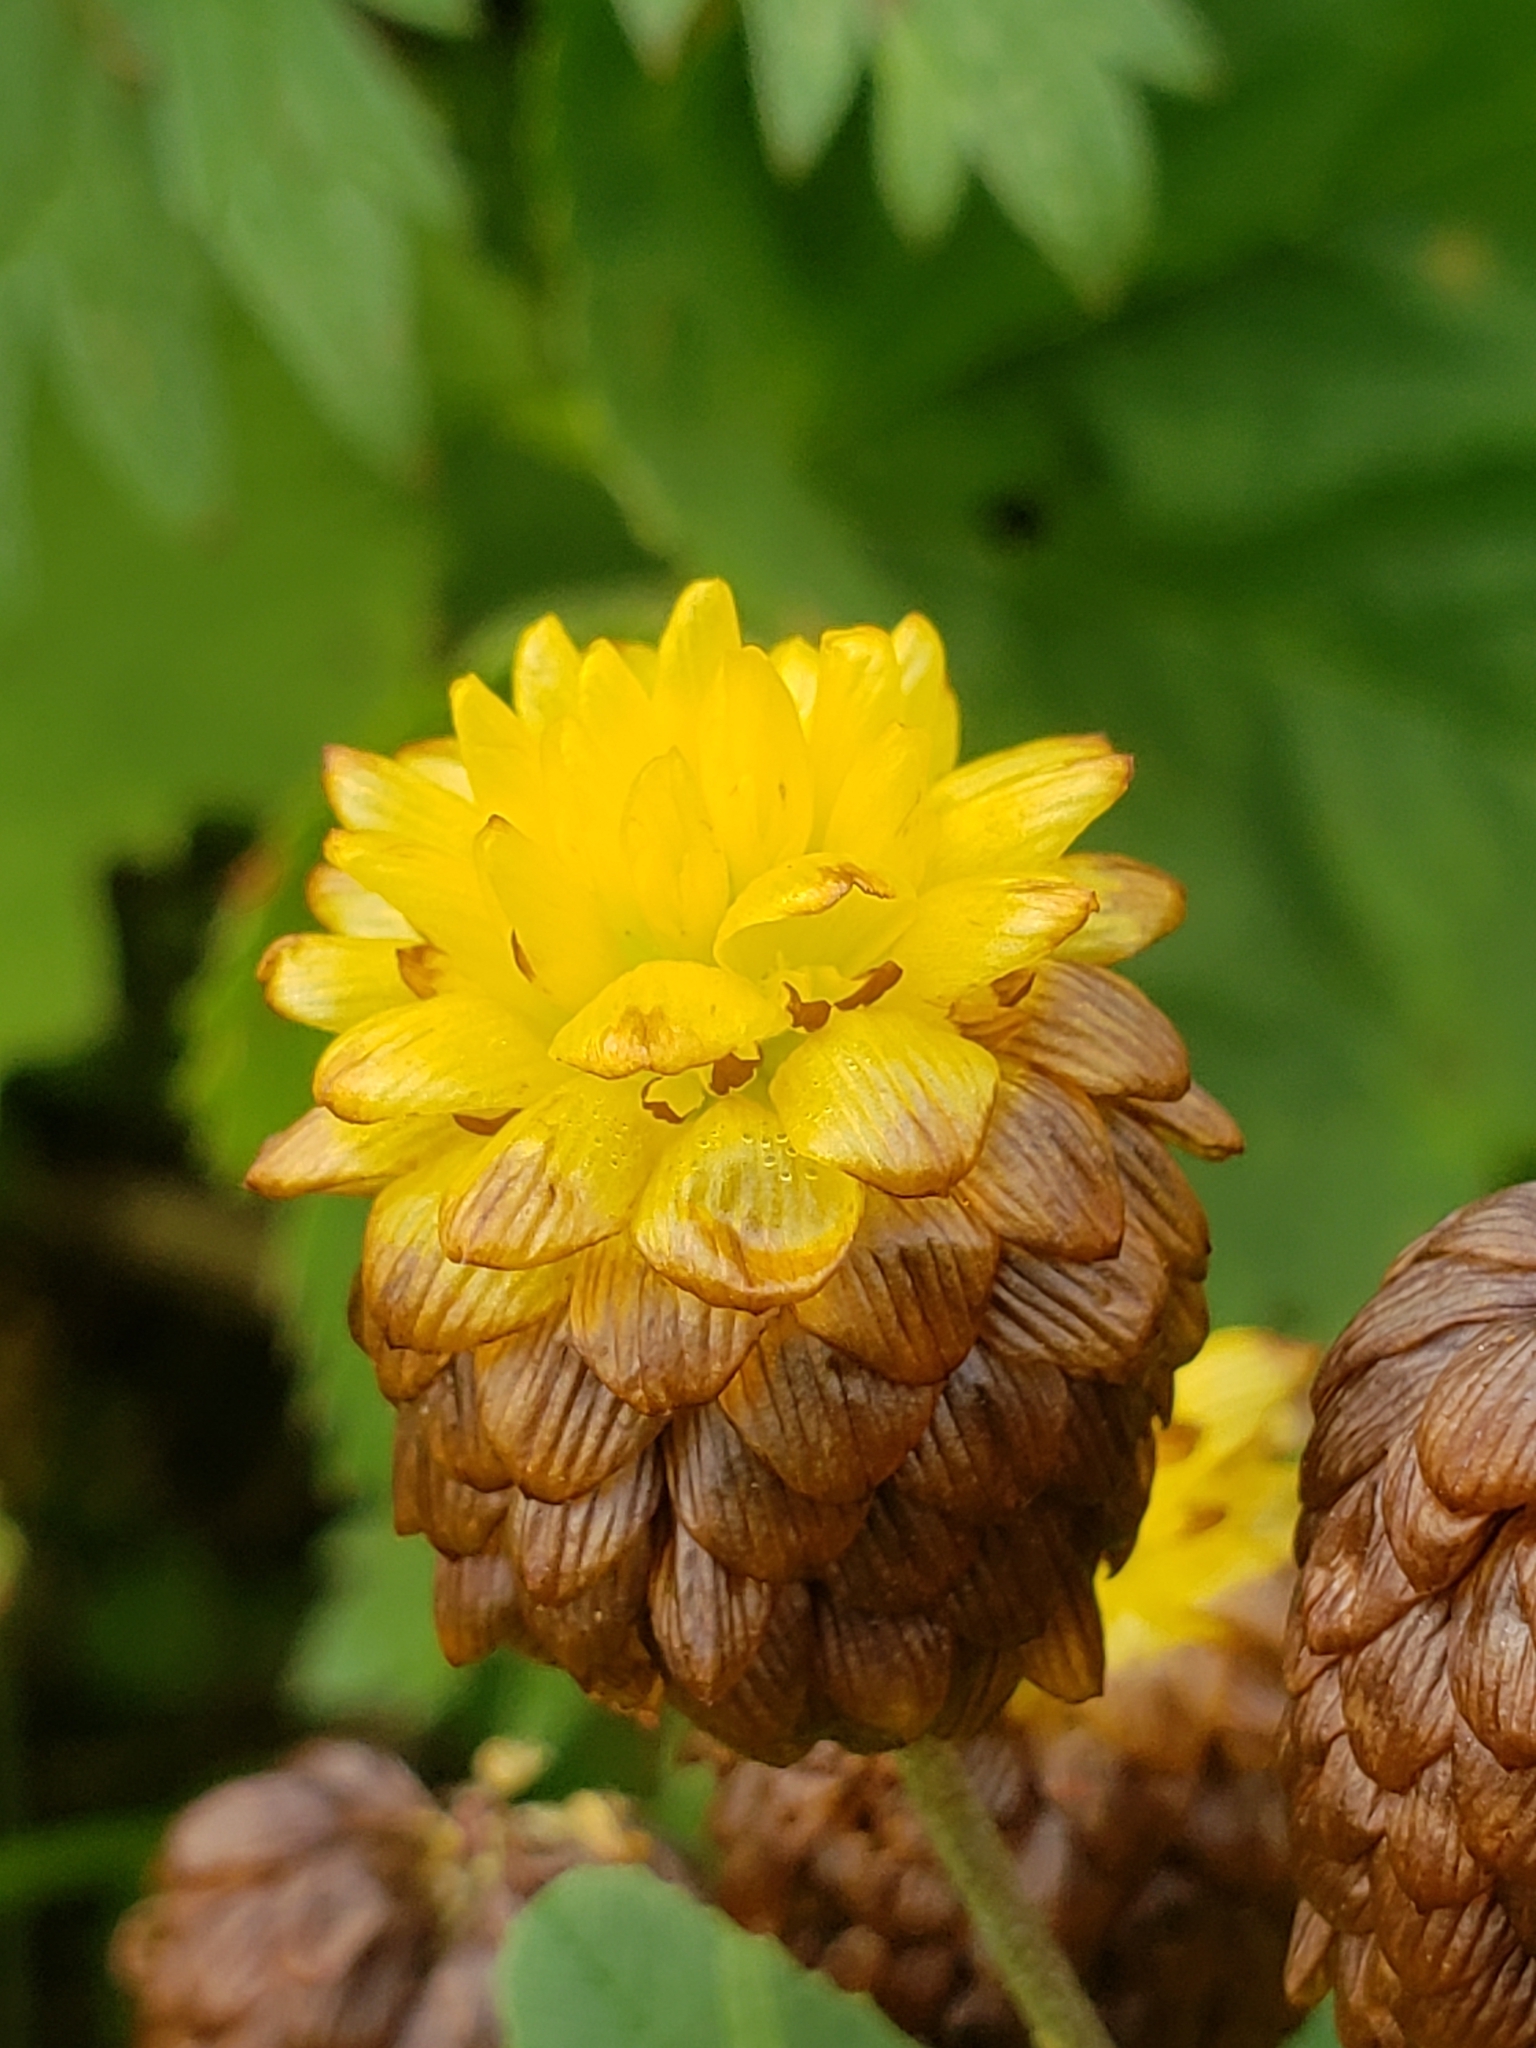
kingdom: Plantae
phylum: Tracheophyta
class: Magnoliopsida
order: Fabales
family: Fabaceae
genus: Trifolium
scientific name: Trifolium badium
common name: Brown clover
